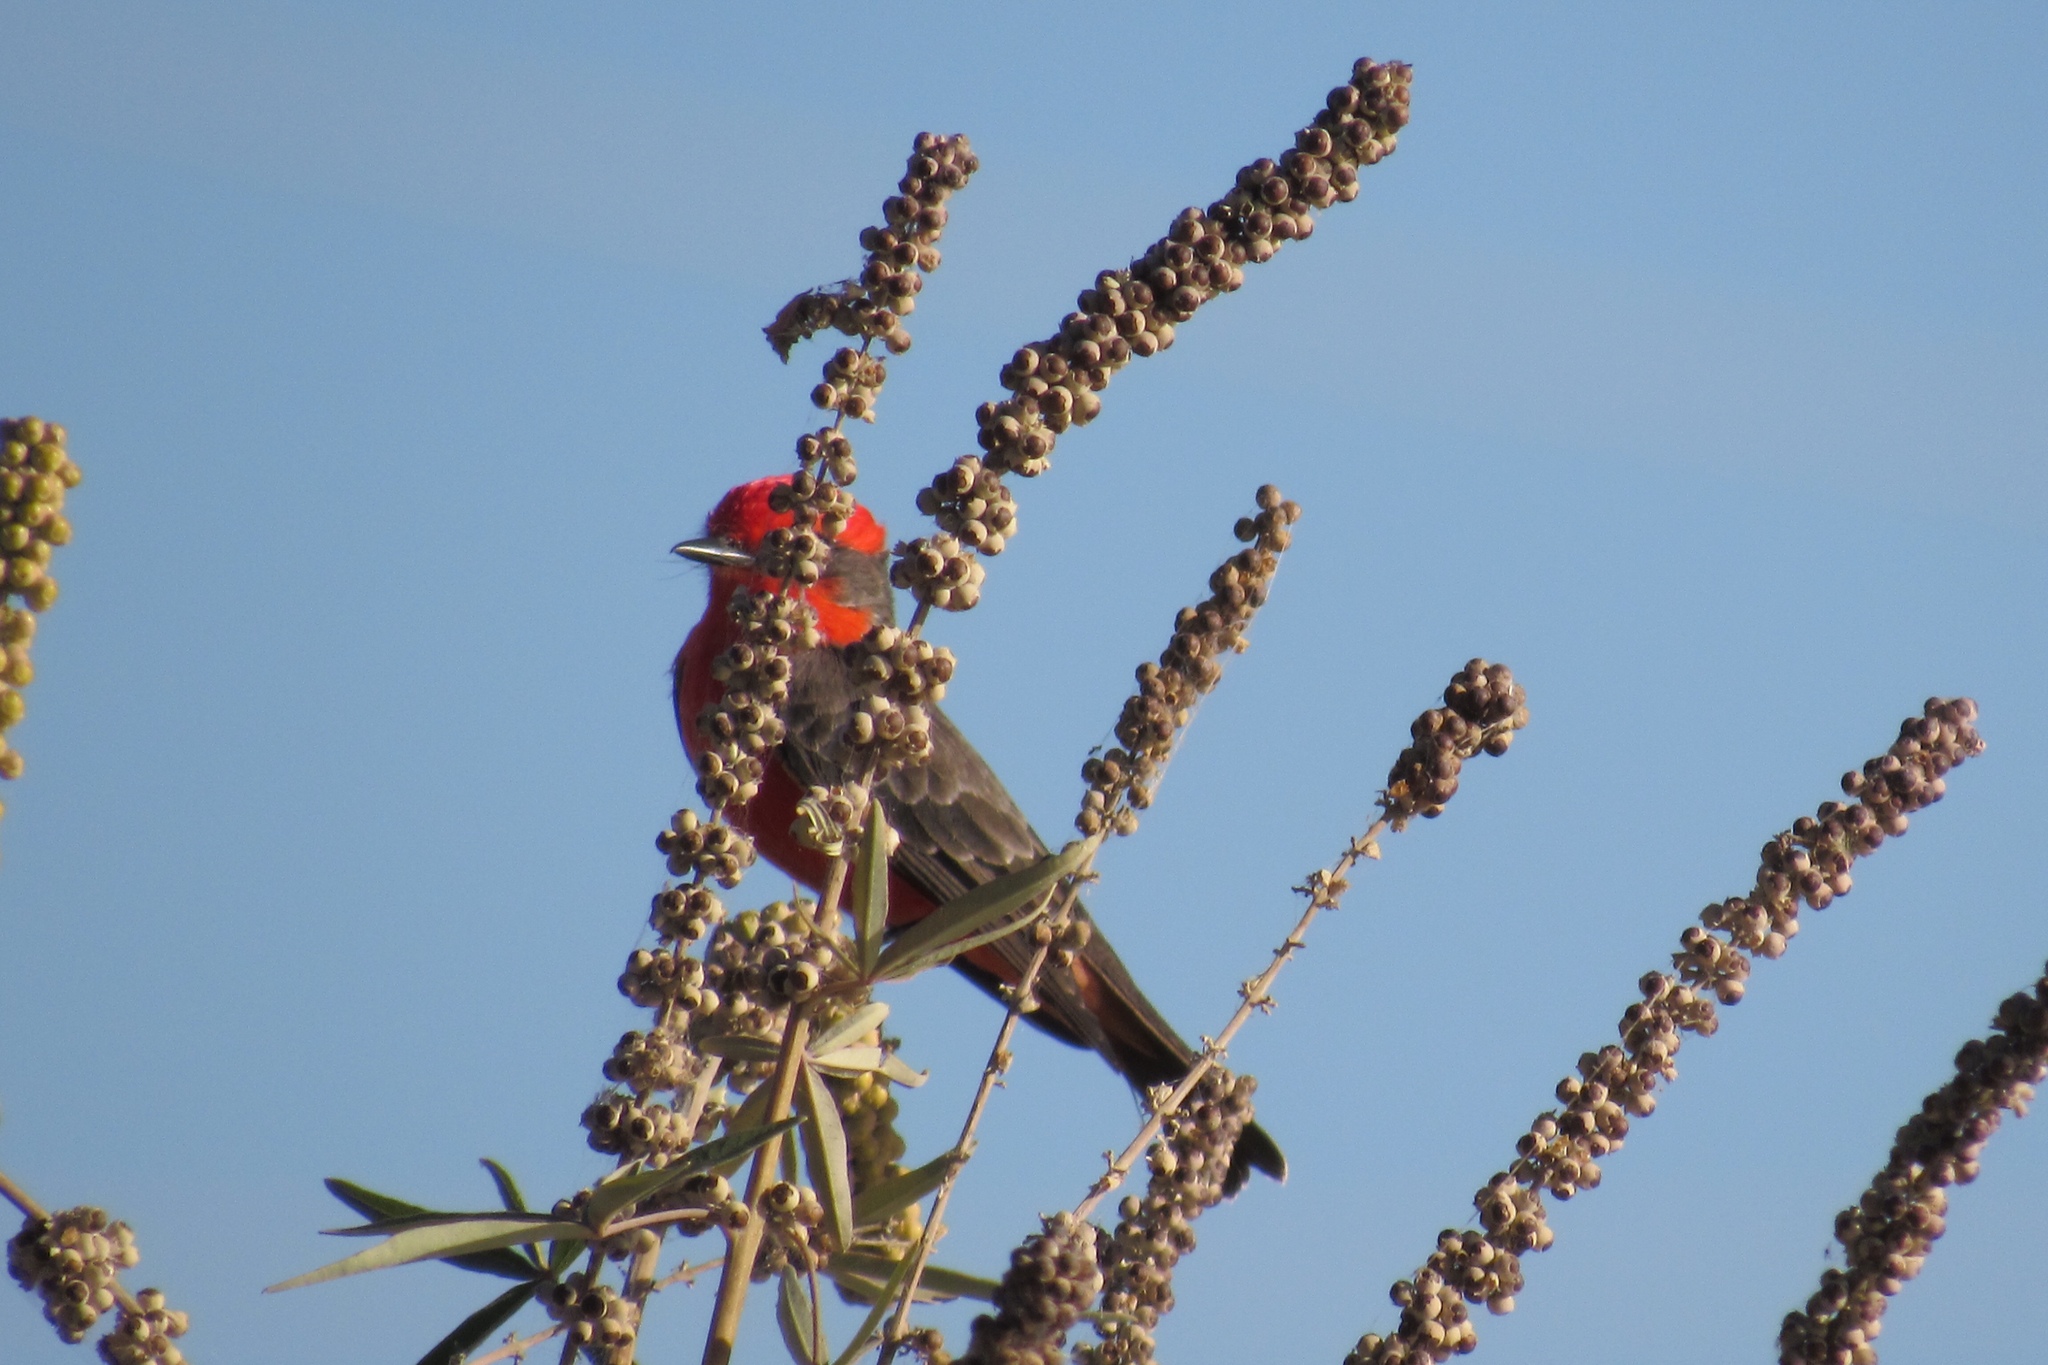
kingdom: Animalia
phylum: Chordata
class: Aves
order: Passeriformes
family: Tyrannidae
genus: Pyrocephalus
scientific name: Pyrocephalus rubinus
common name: Vermilion flycatcher
